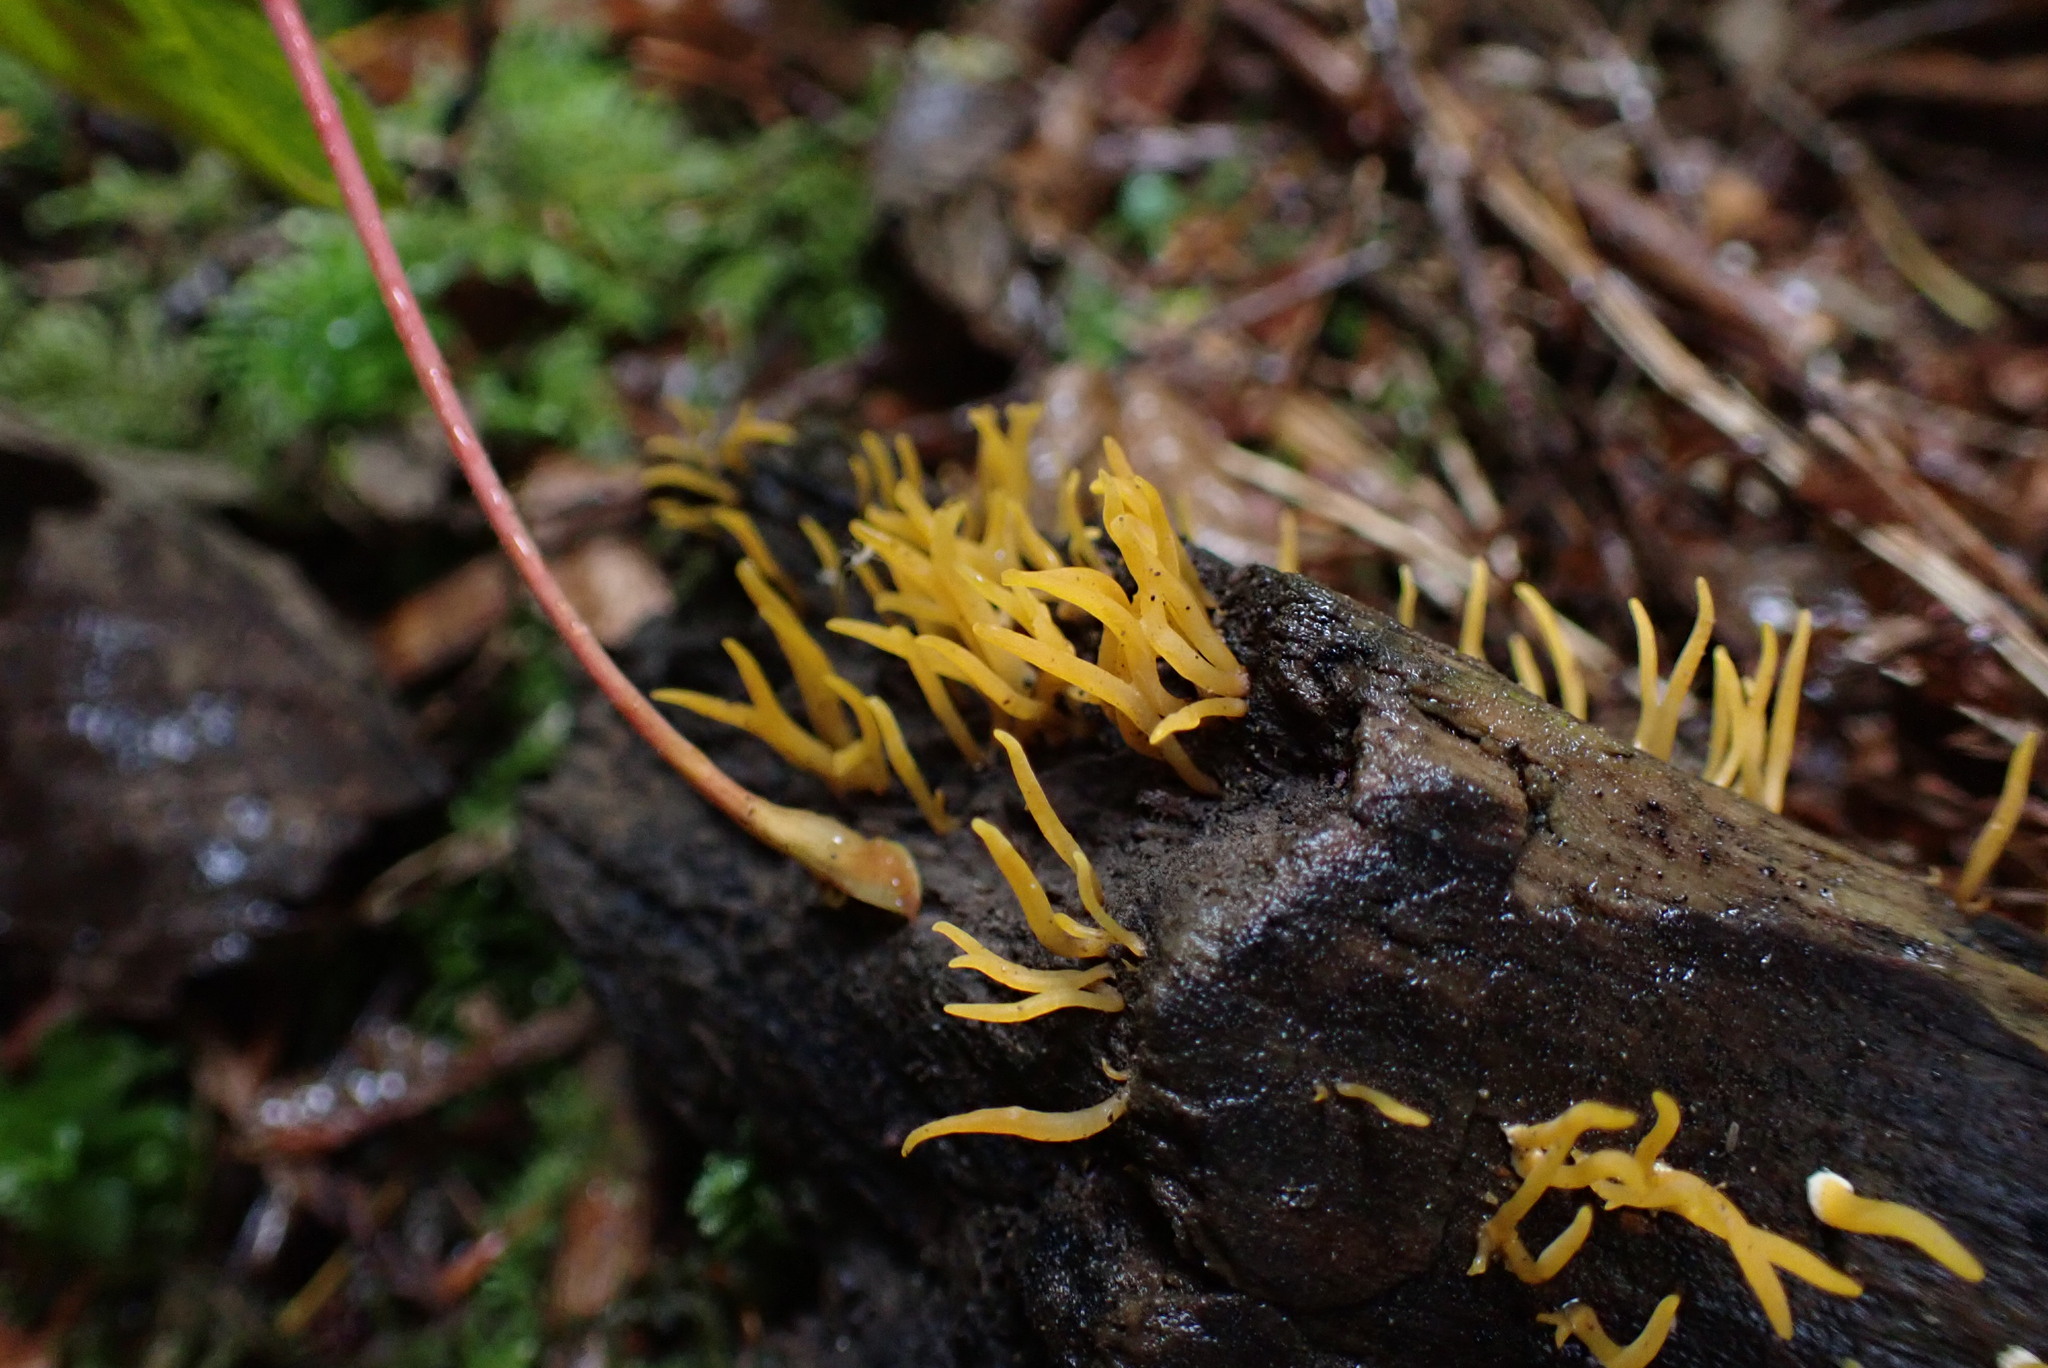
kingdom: Fungi
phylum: Basidiomycota
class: Dacrymycetes
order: Dacrymycetales
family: Dacrymycetaceae
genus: Calocera
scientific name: Calocera cornea
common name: Small stagshorn
